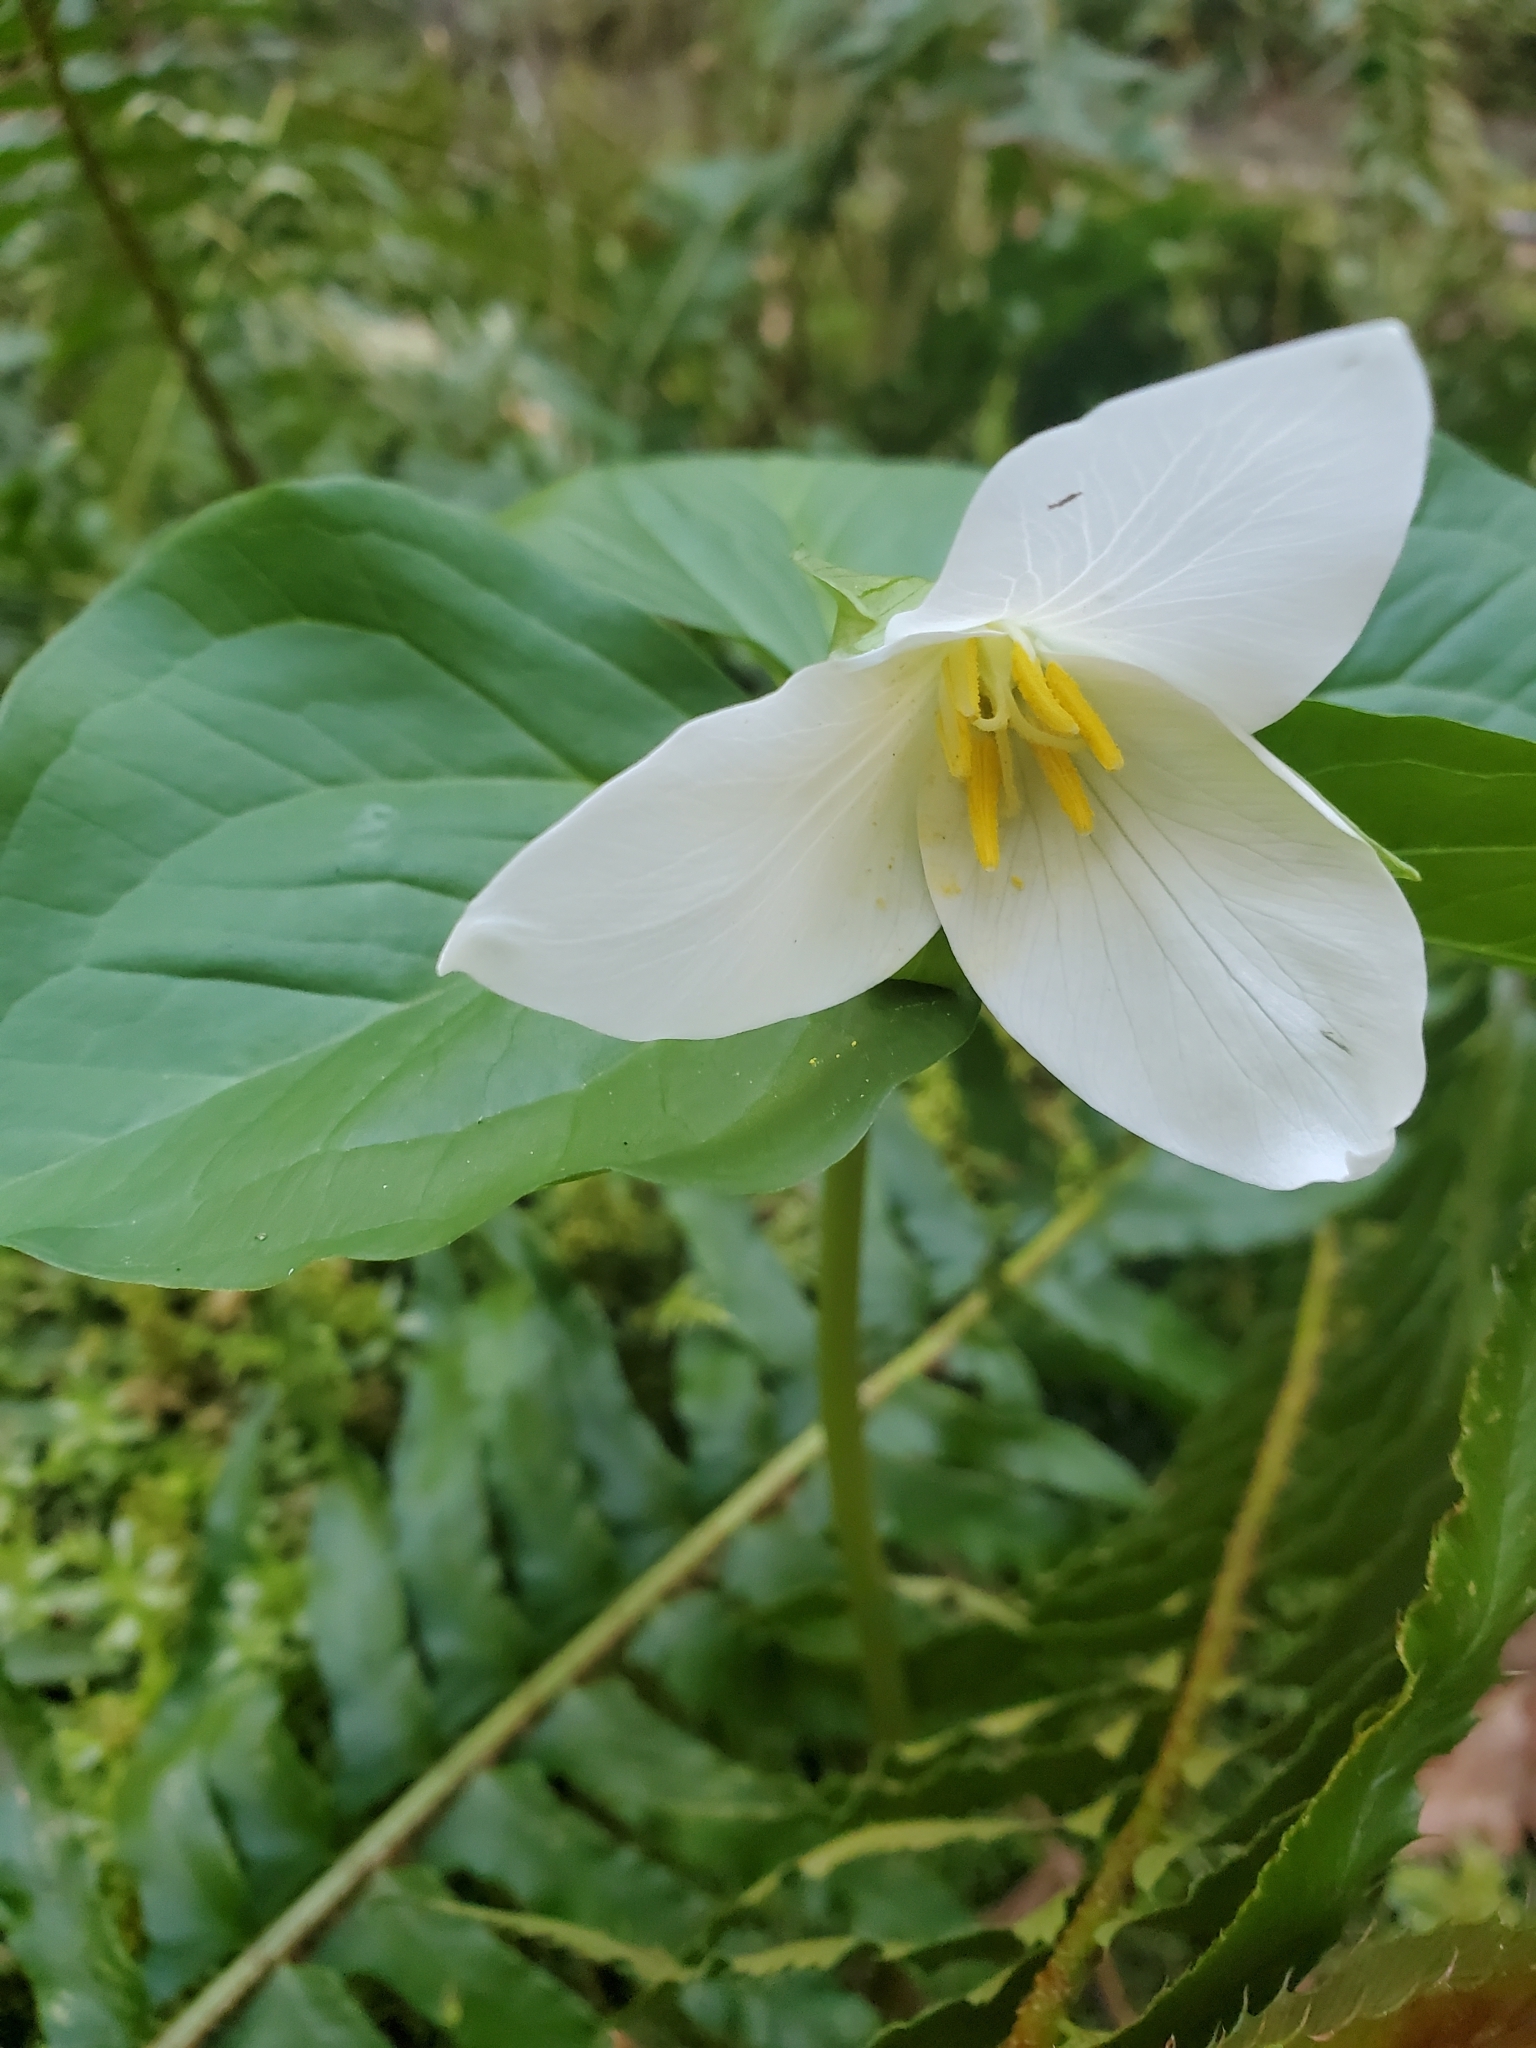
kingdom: Plantae
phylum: Tracheophyta
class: Liliopsida
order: Liliales
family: Melanthiaceae
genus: Trillium
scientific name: Trillium ovatum
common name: Pacific trillium
